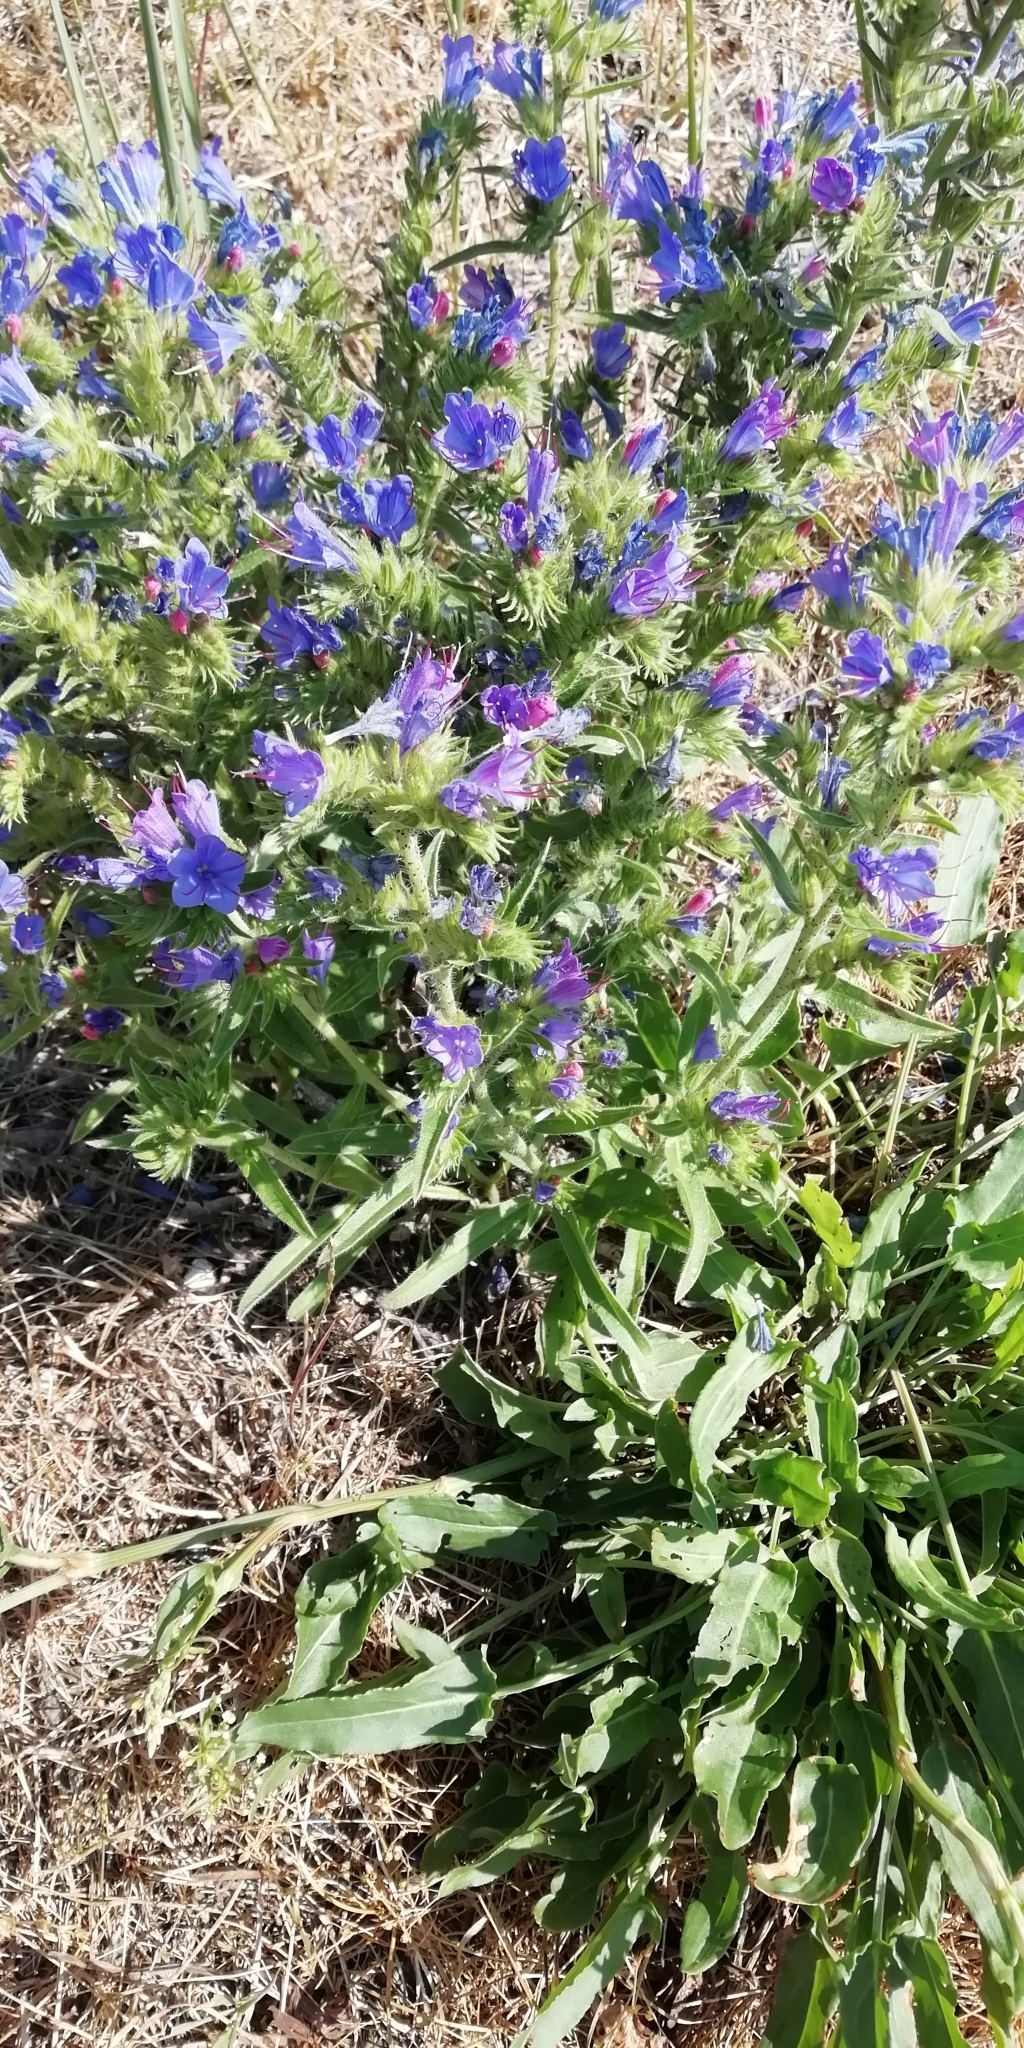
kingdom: Plantae
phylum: Tracheophyta
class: Magnoliopsida
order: Boraginales
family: Boraginaceae
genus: Echium
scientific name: Echium vulgare
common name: Common viper's bugloss
